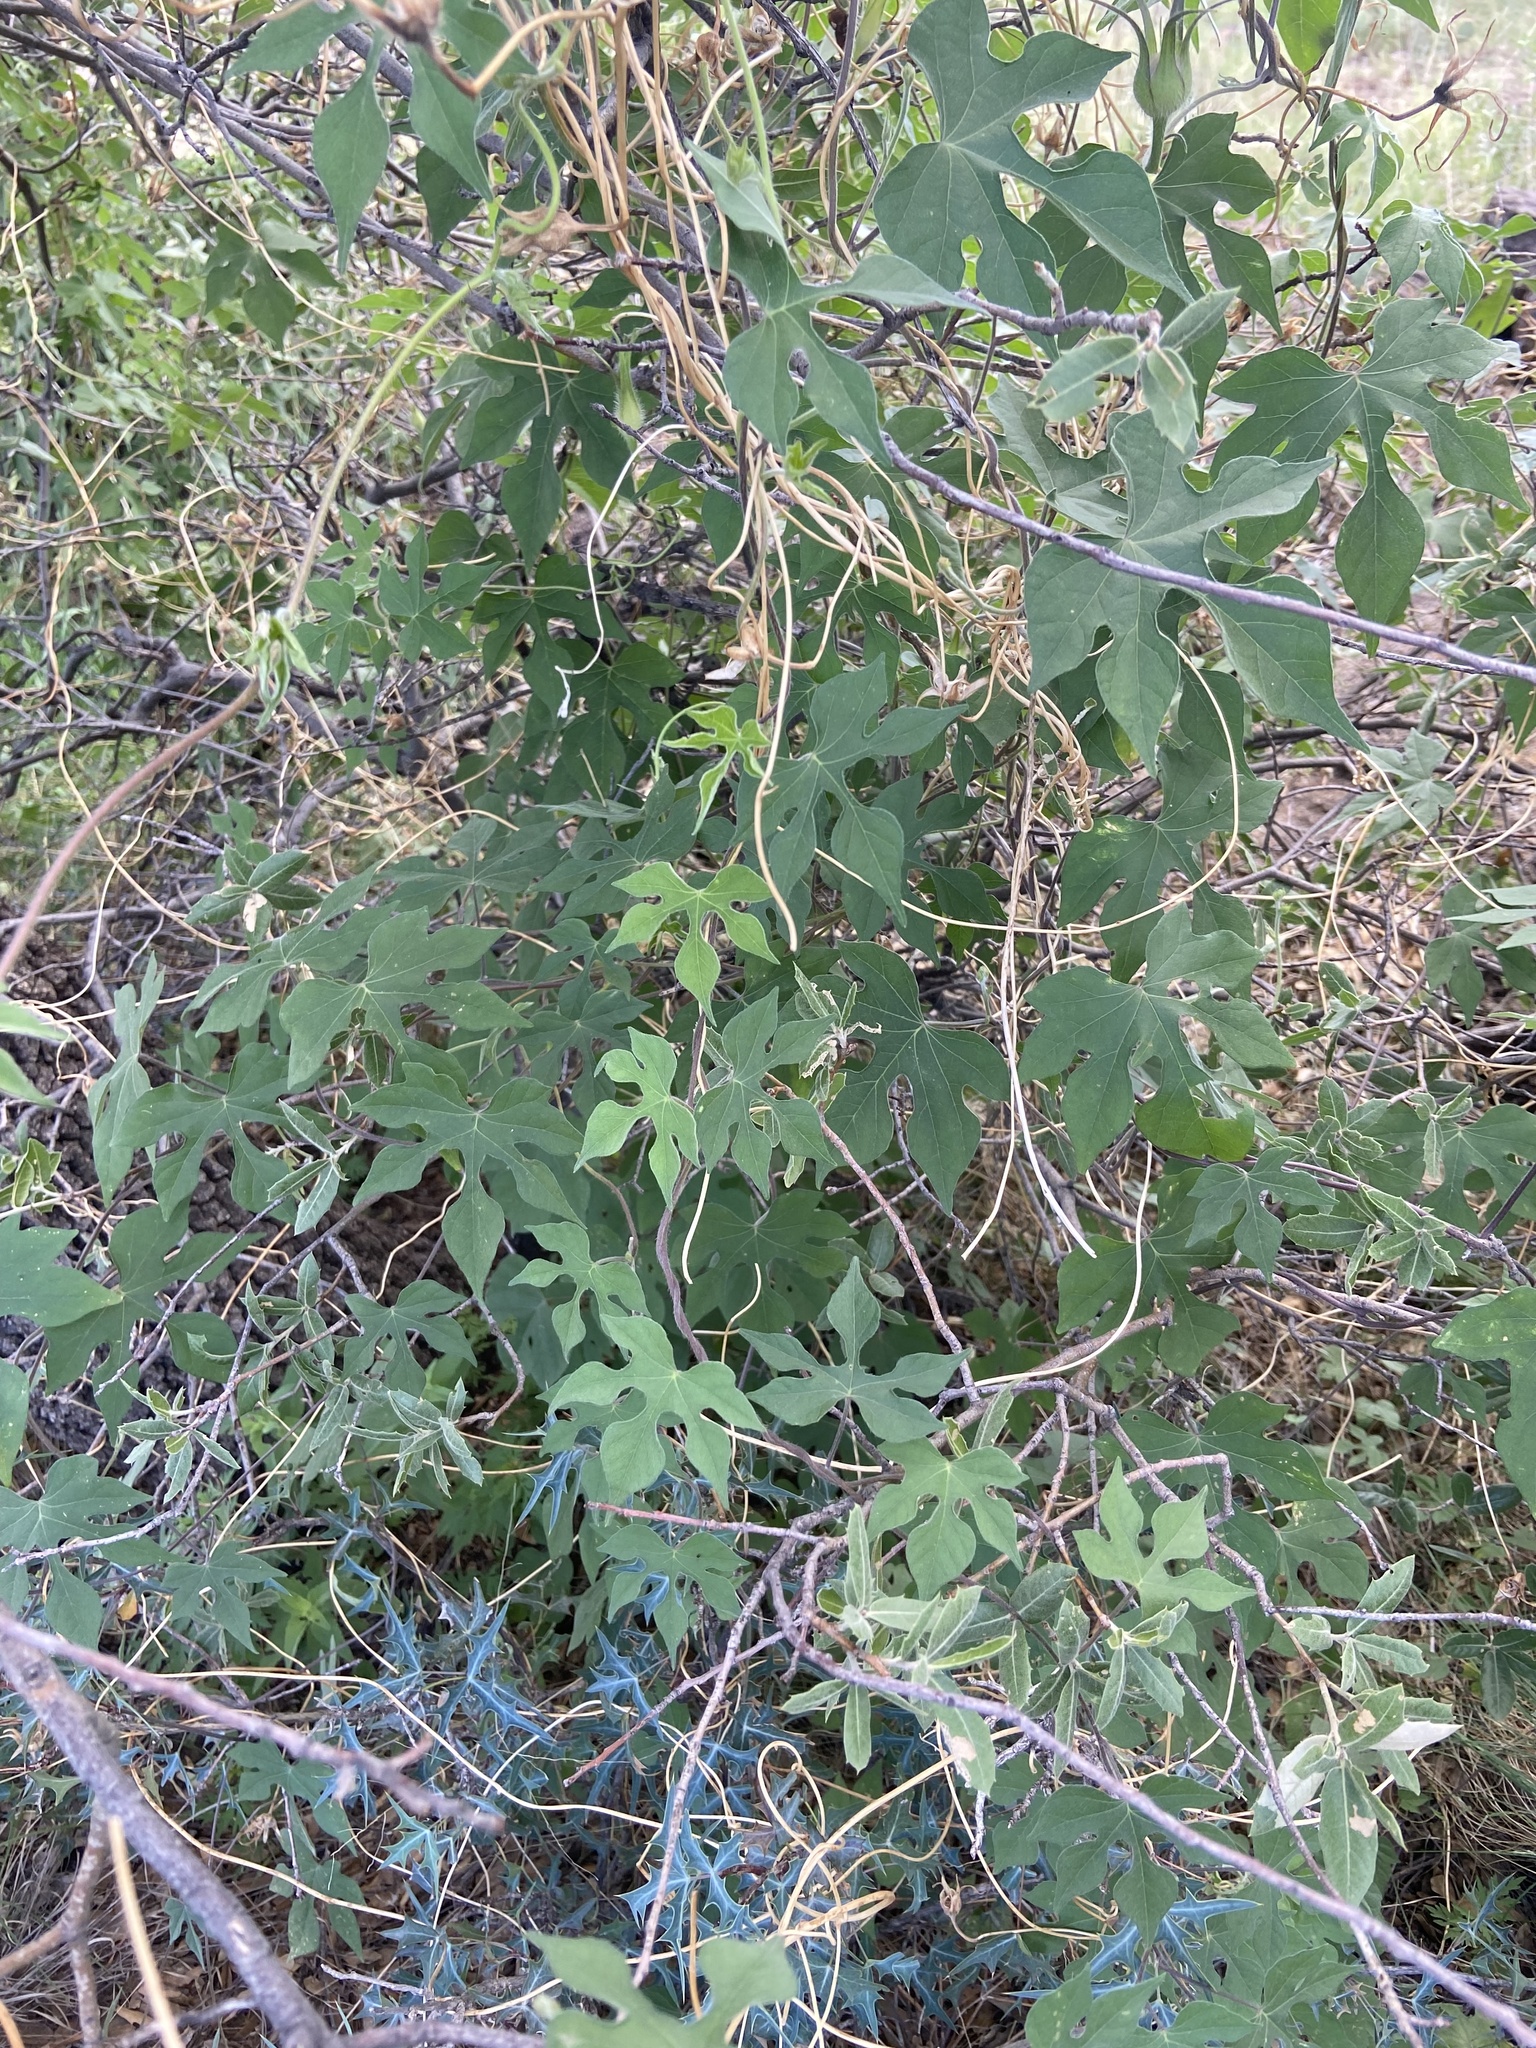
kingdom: Plantae
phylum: Tracheophyta
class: Magnoliopsida
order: Solanales
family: Convolvulaceae
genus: Ipomoea
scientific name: Ipomoea lindheimeri
